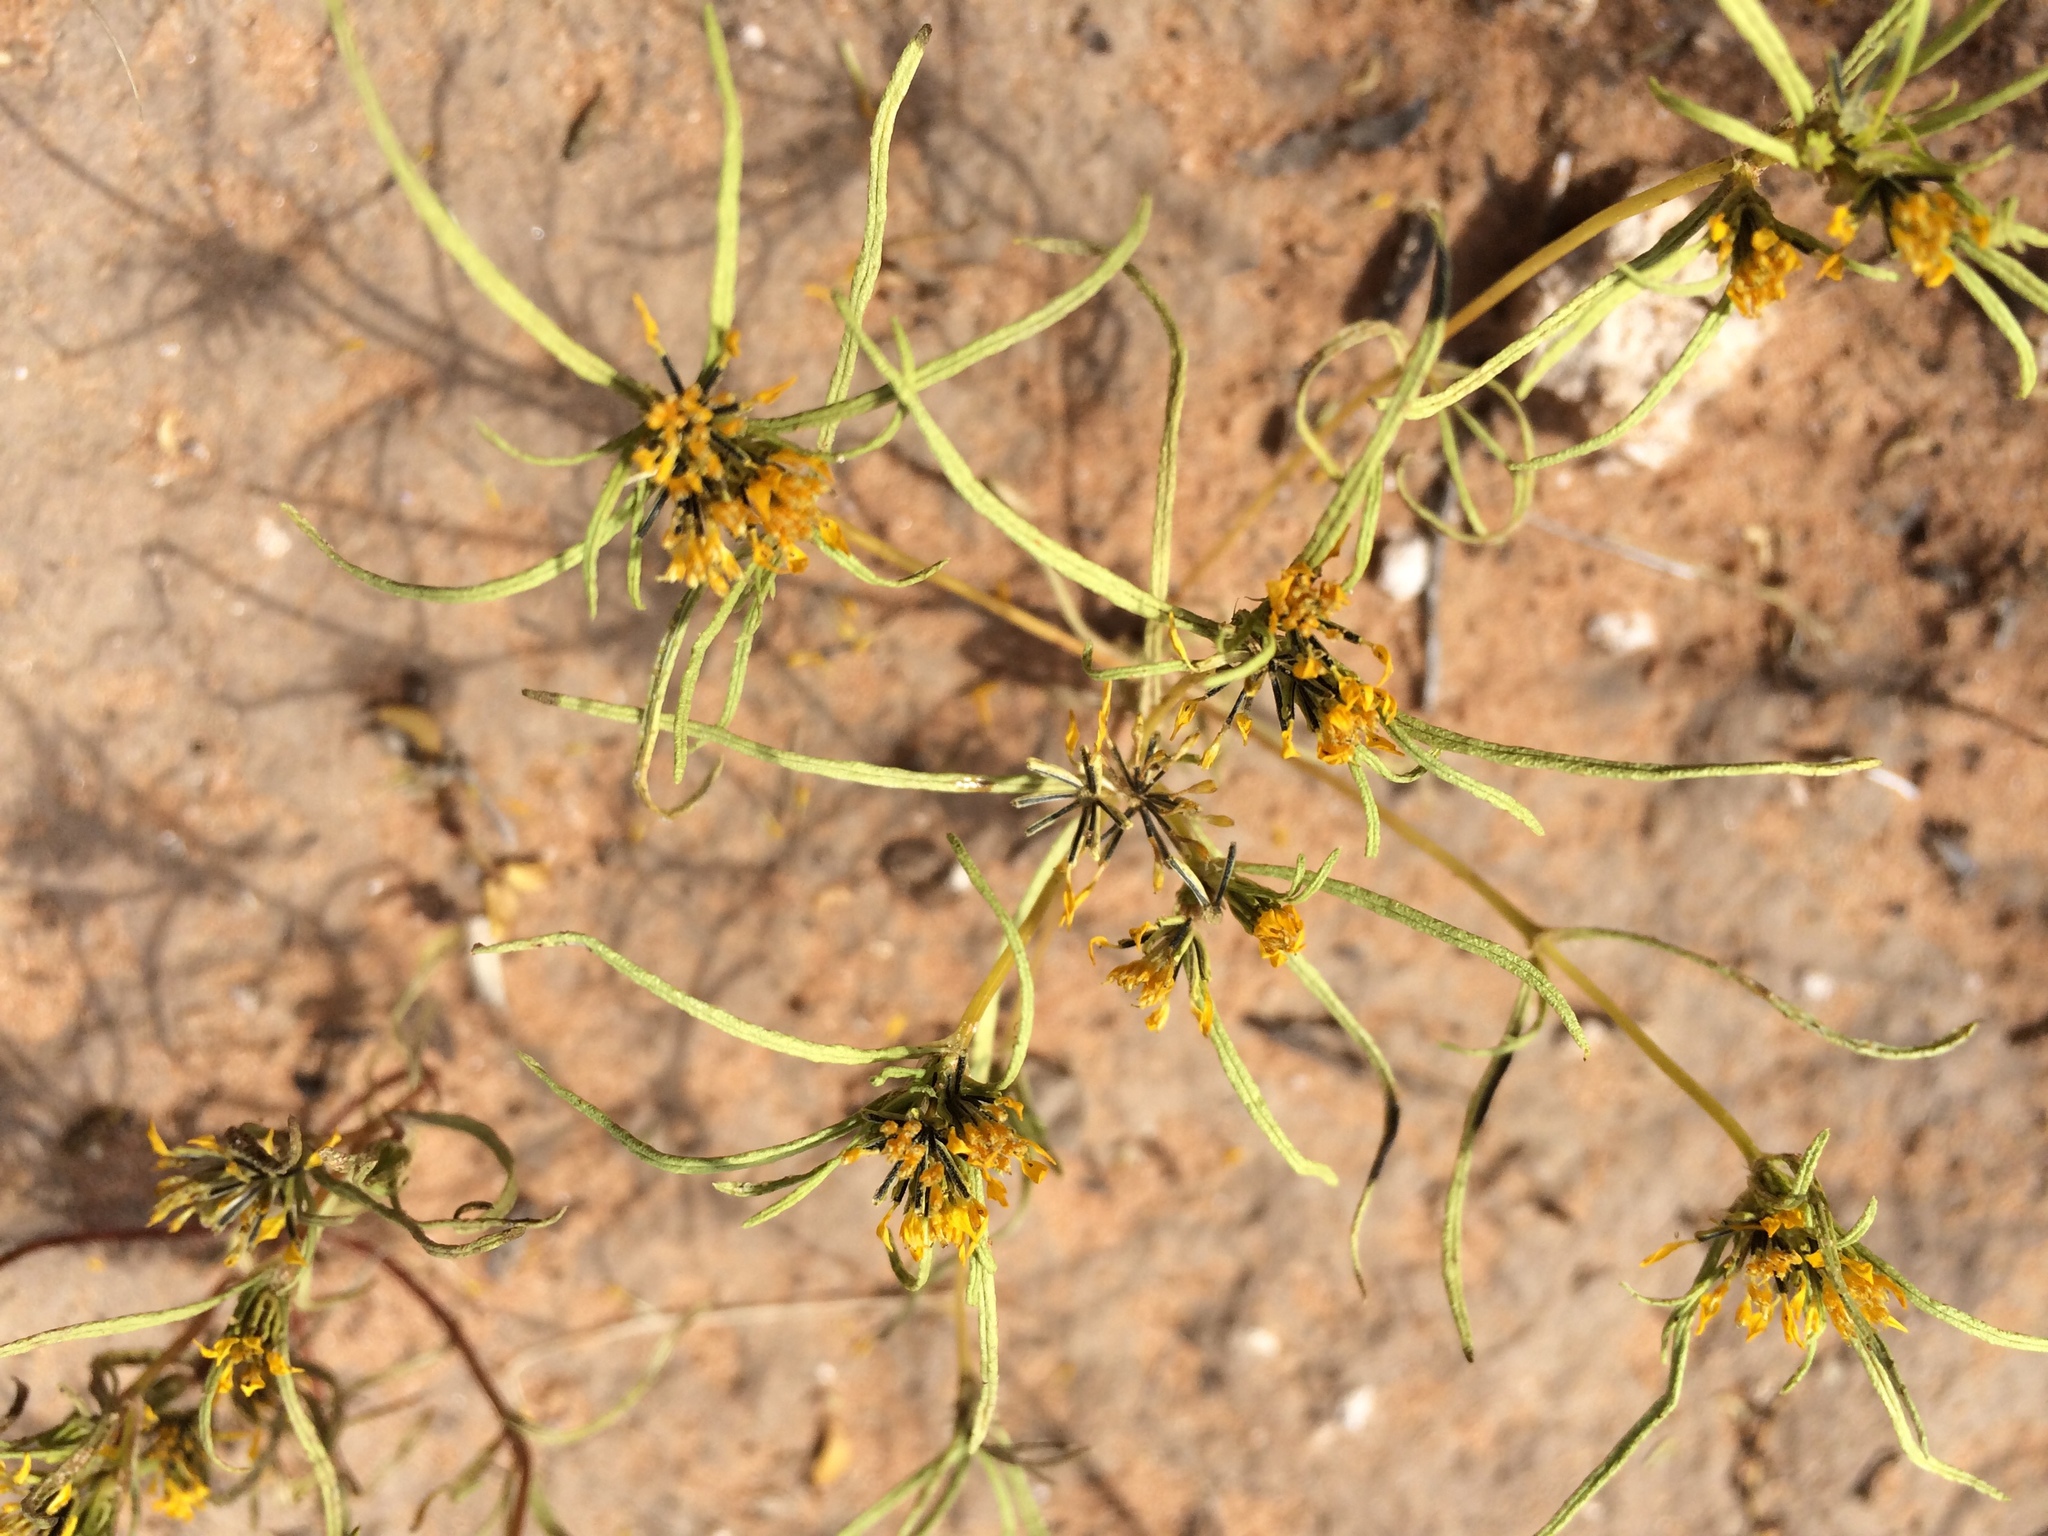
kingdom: Plantae
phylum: Tracheophyta
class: Magnoliopsida
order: Asterales
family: Asteraceae
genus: Pectis
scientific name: Pectis angustifolia
